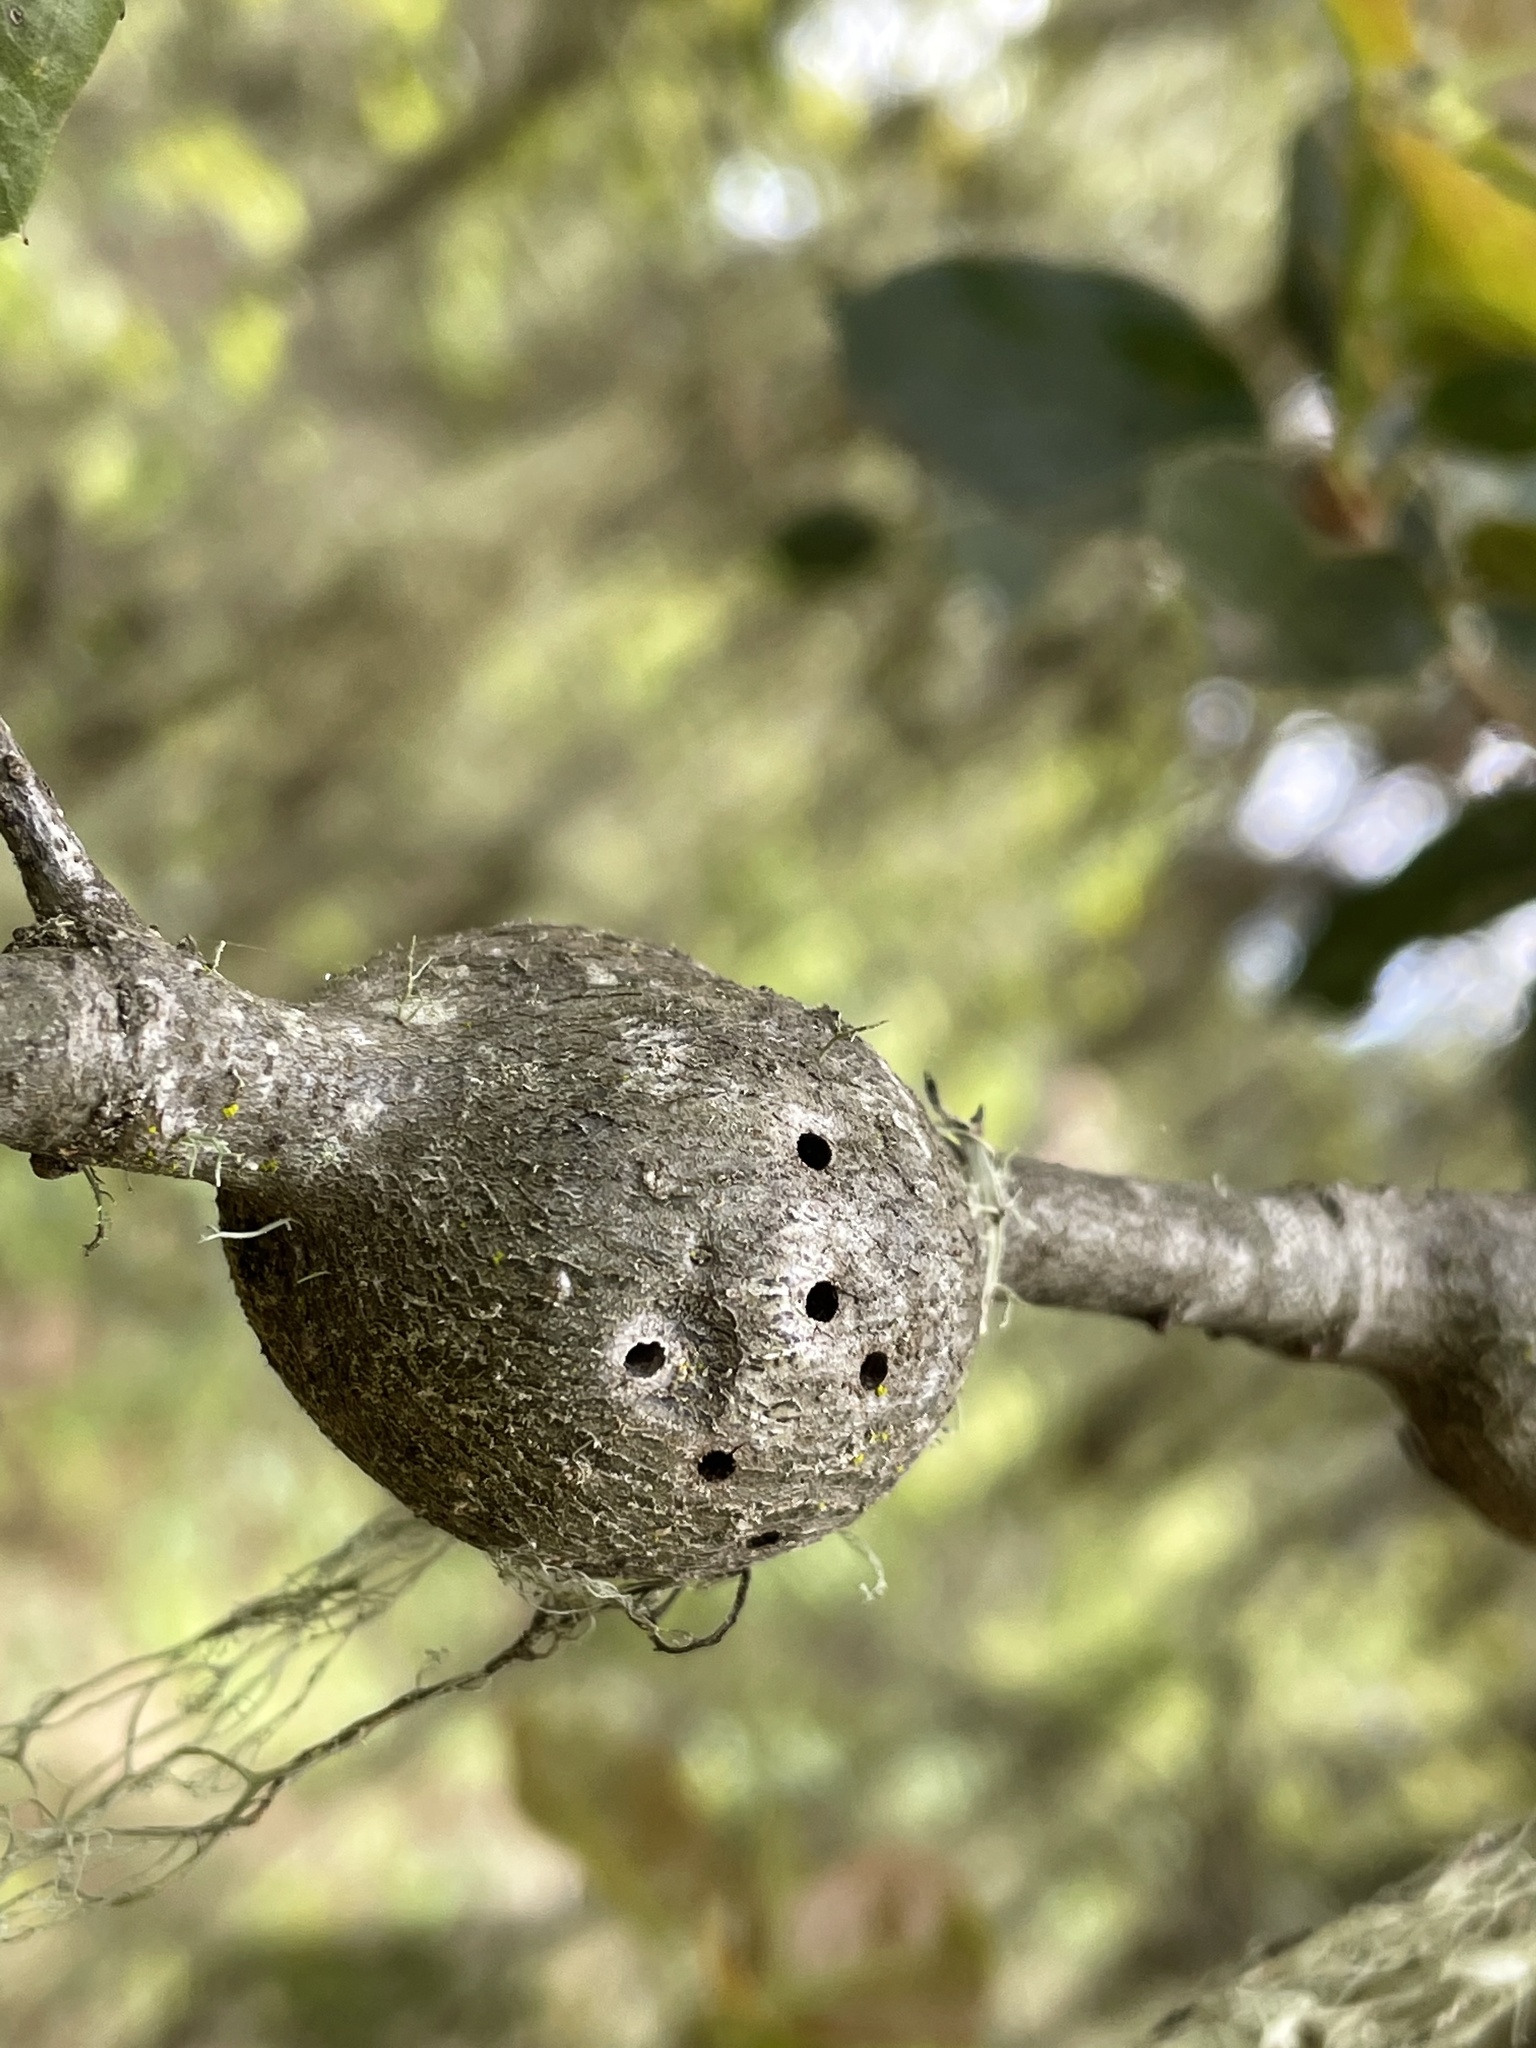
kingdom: Animalia
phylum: Arthropoda
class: Insecta
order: Hymenoptera
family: Cynipidae
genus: Callirhytis
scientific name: Callirhytis
